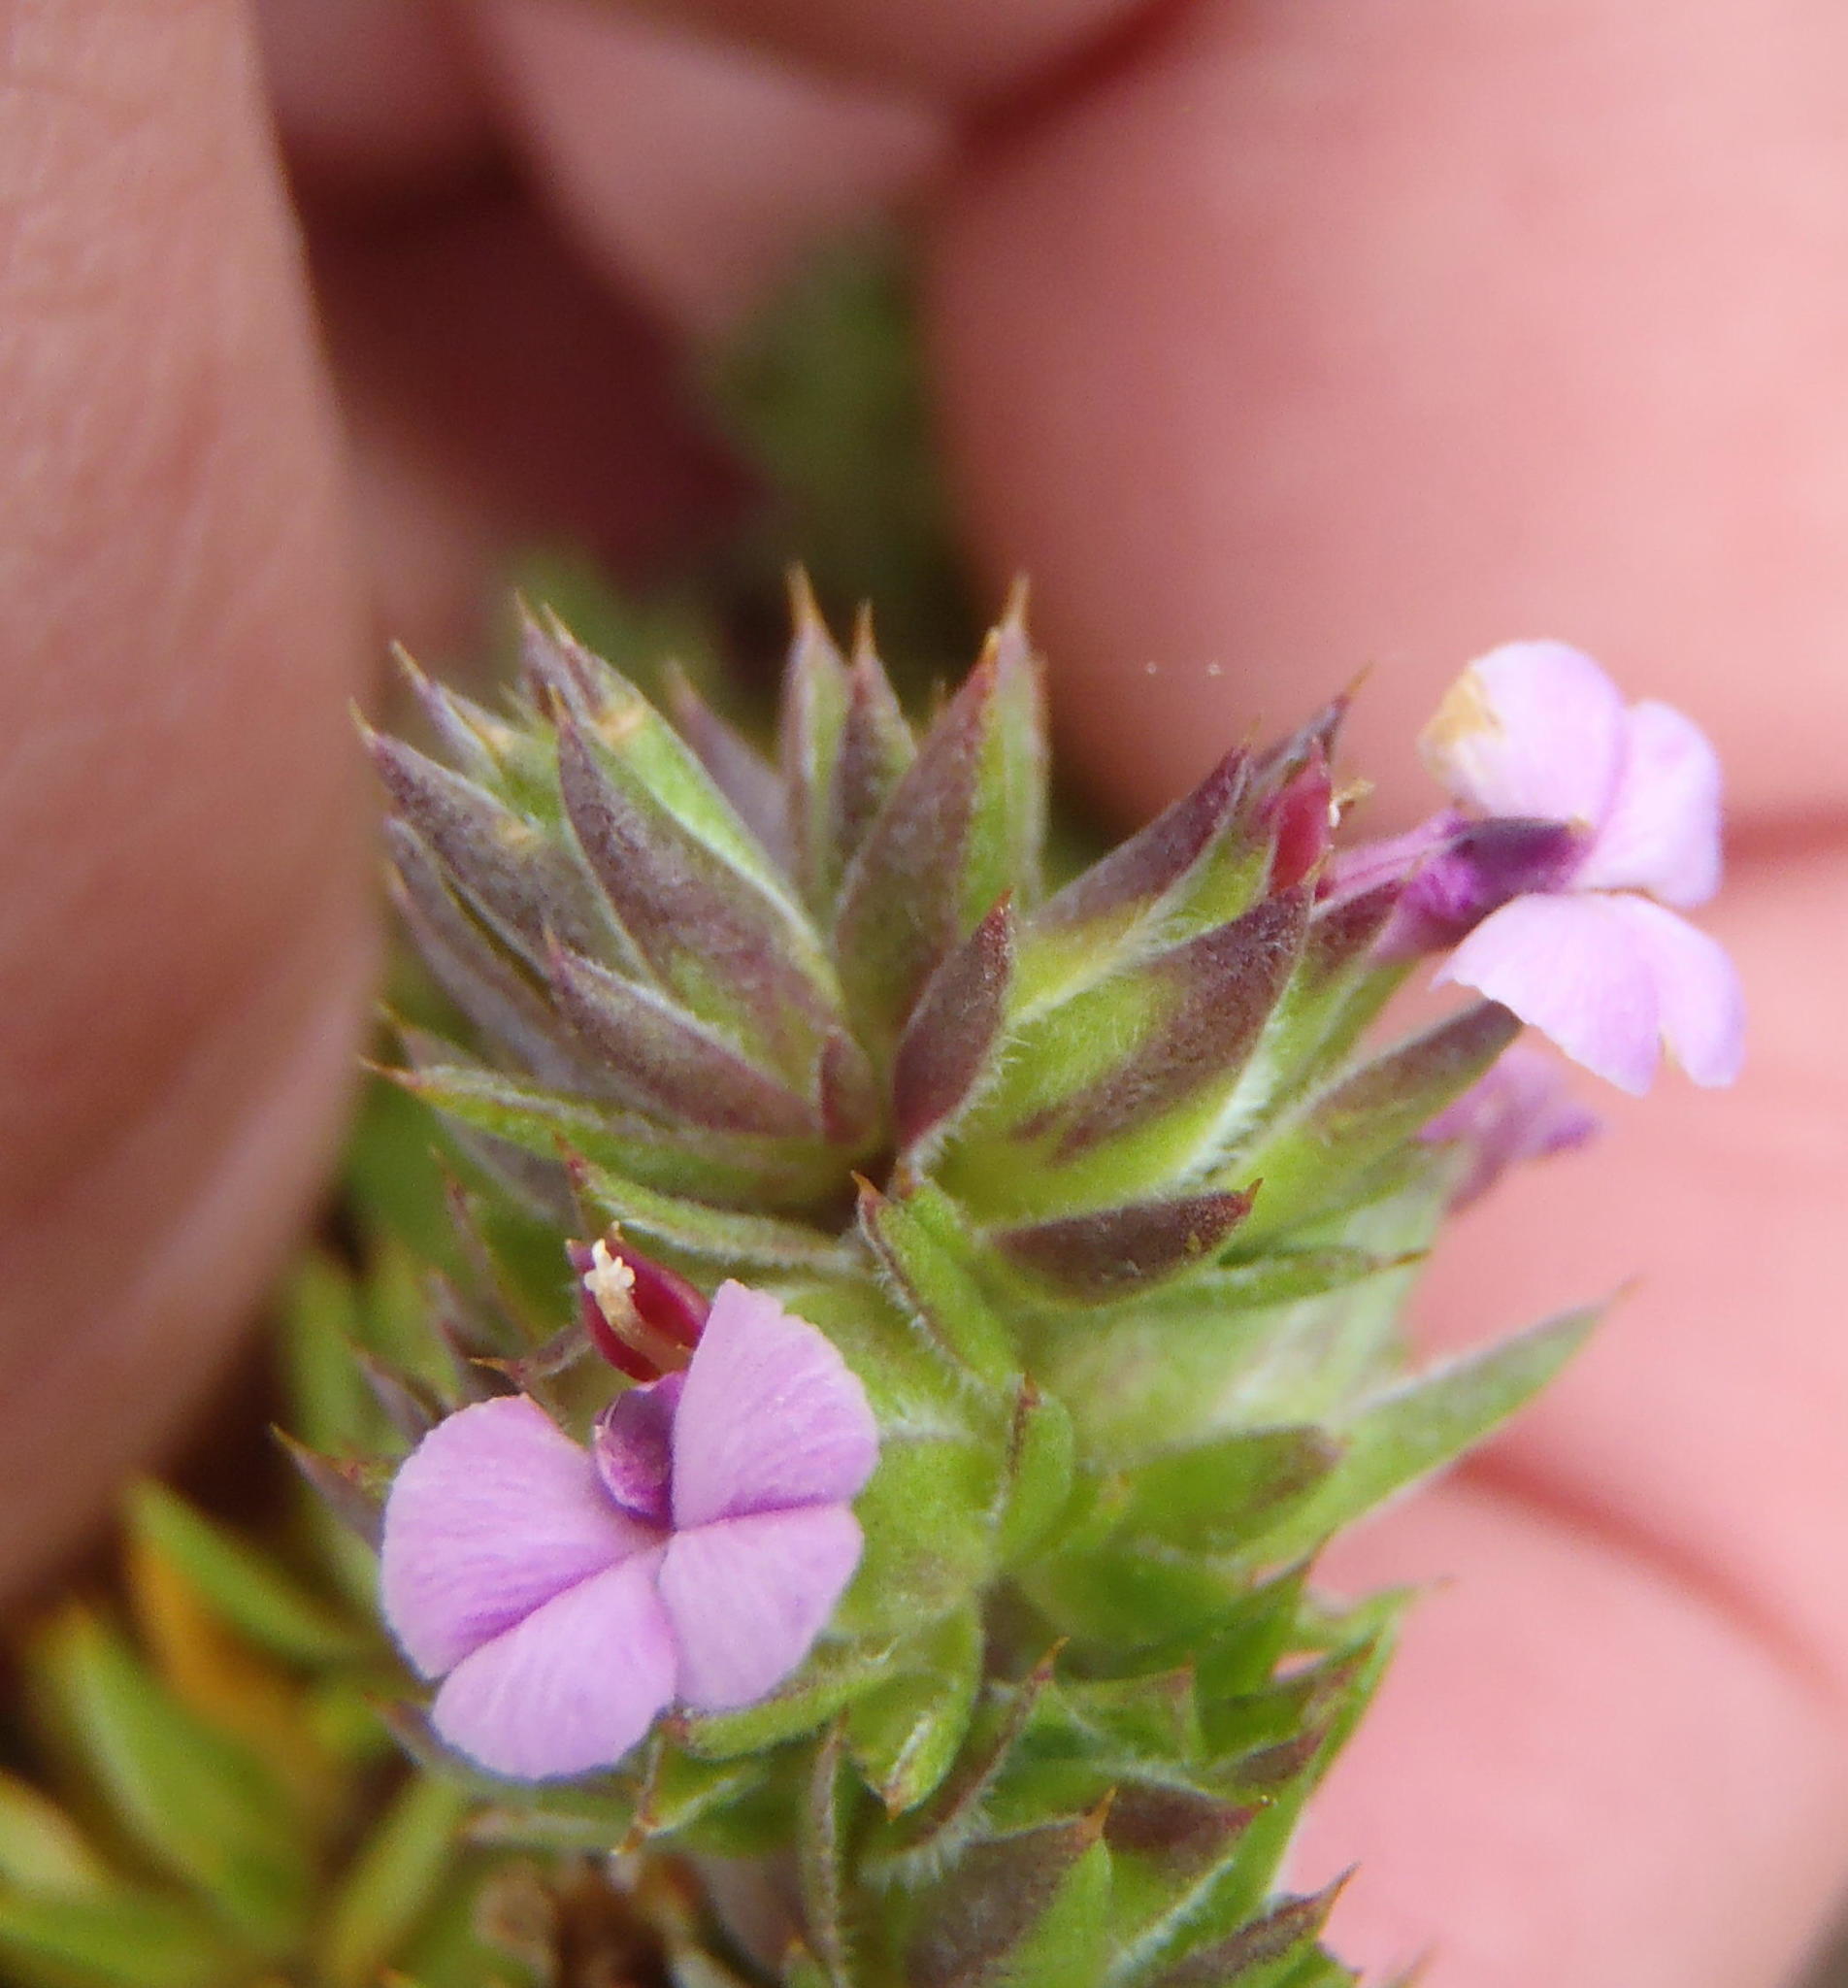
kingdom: Plantae
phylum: Tracheophyta
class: Magnoliopsida
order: Fabales
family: Polygalaceae
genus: Muraltia
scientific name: Muraltia squarrosa
